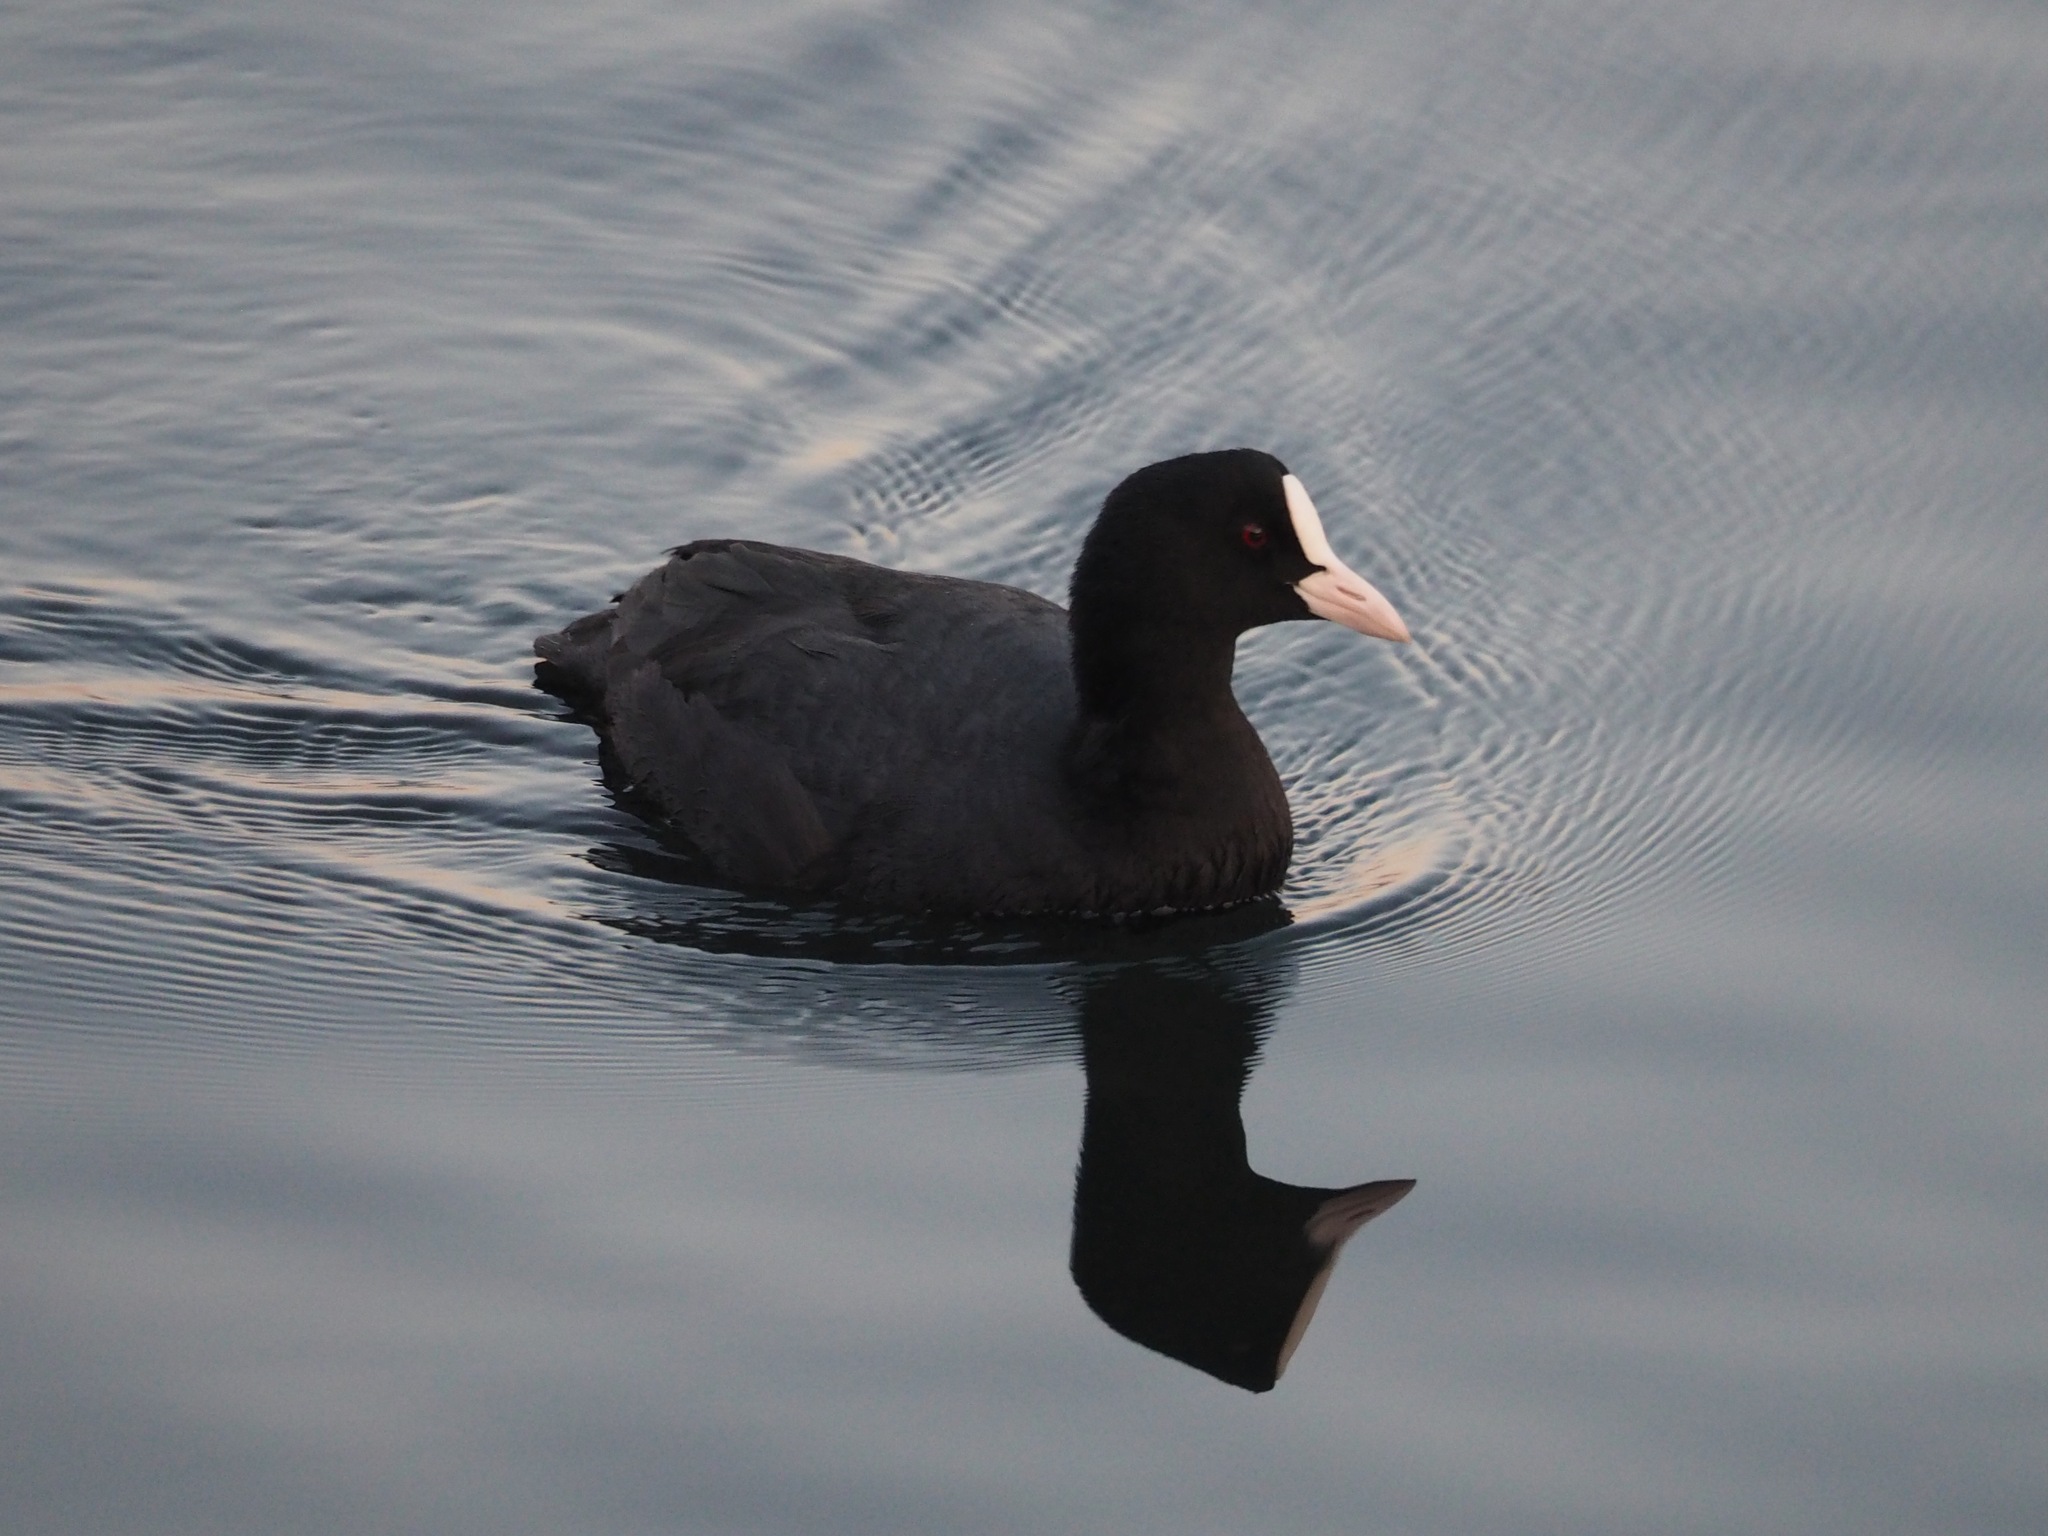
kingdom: Animalia
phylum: Chordata
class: Aves
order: Gruiformes
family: Rallidae
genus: Fulica
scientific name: Fulica atra
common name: Eurasian coot
